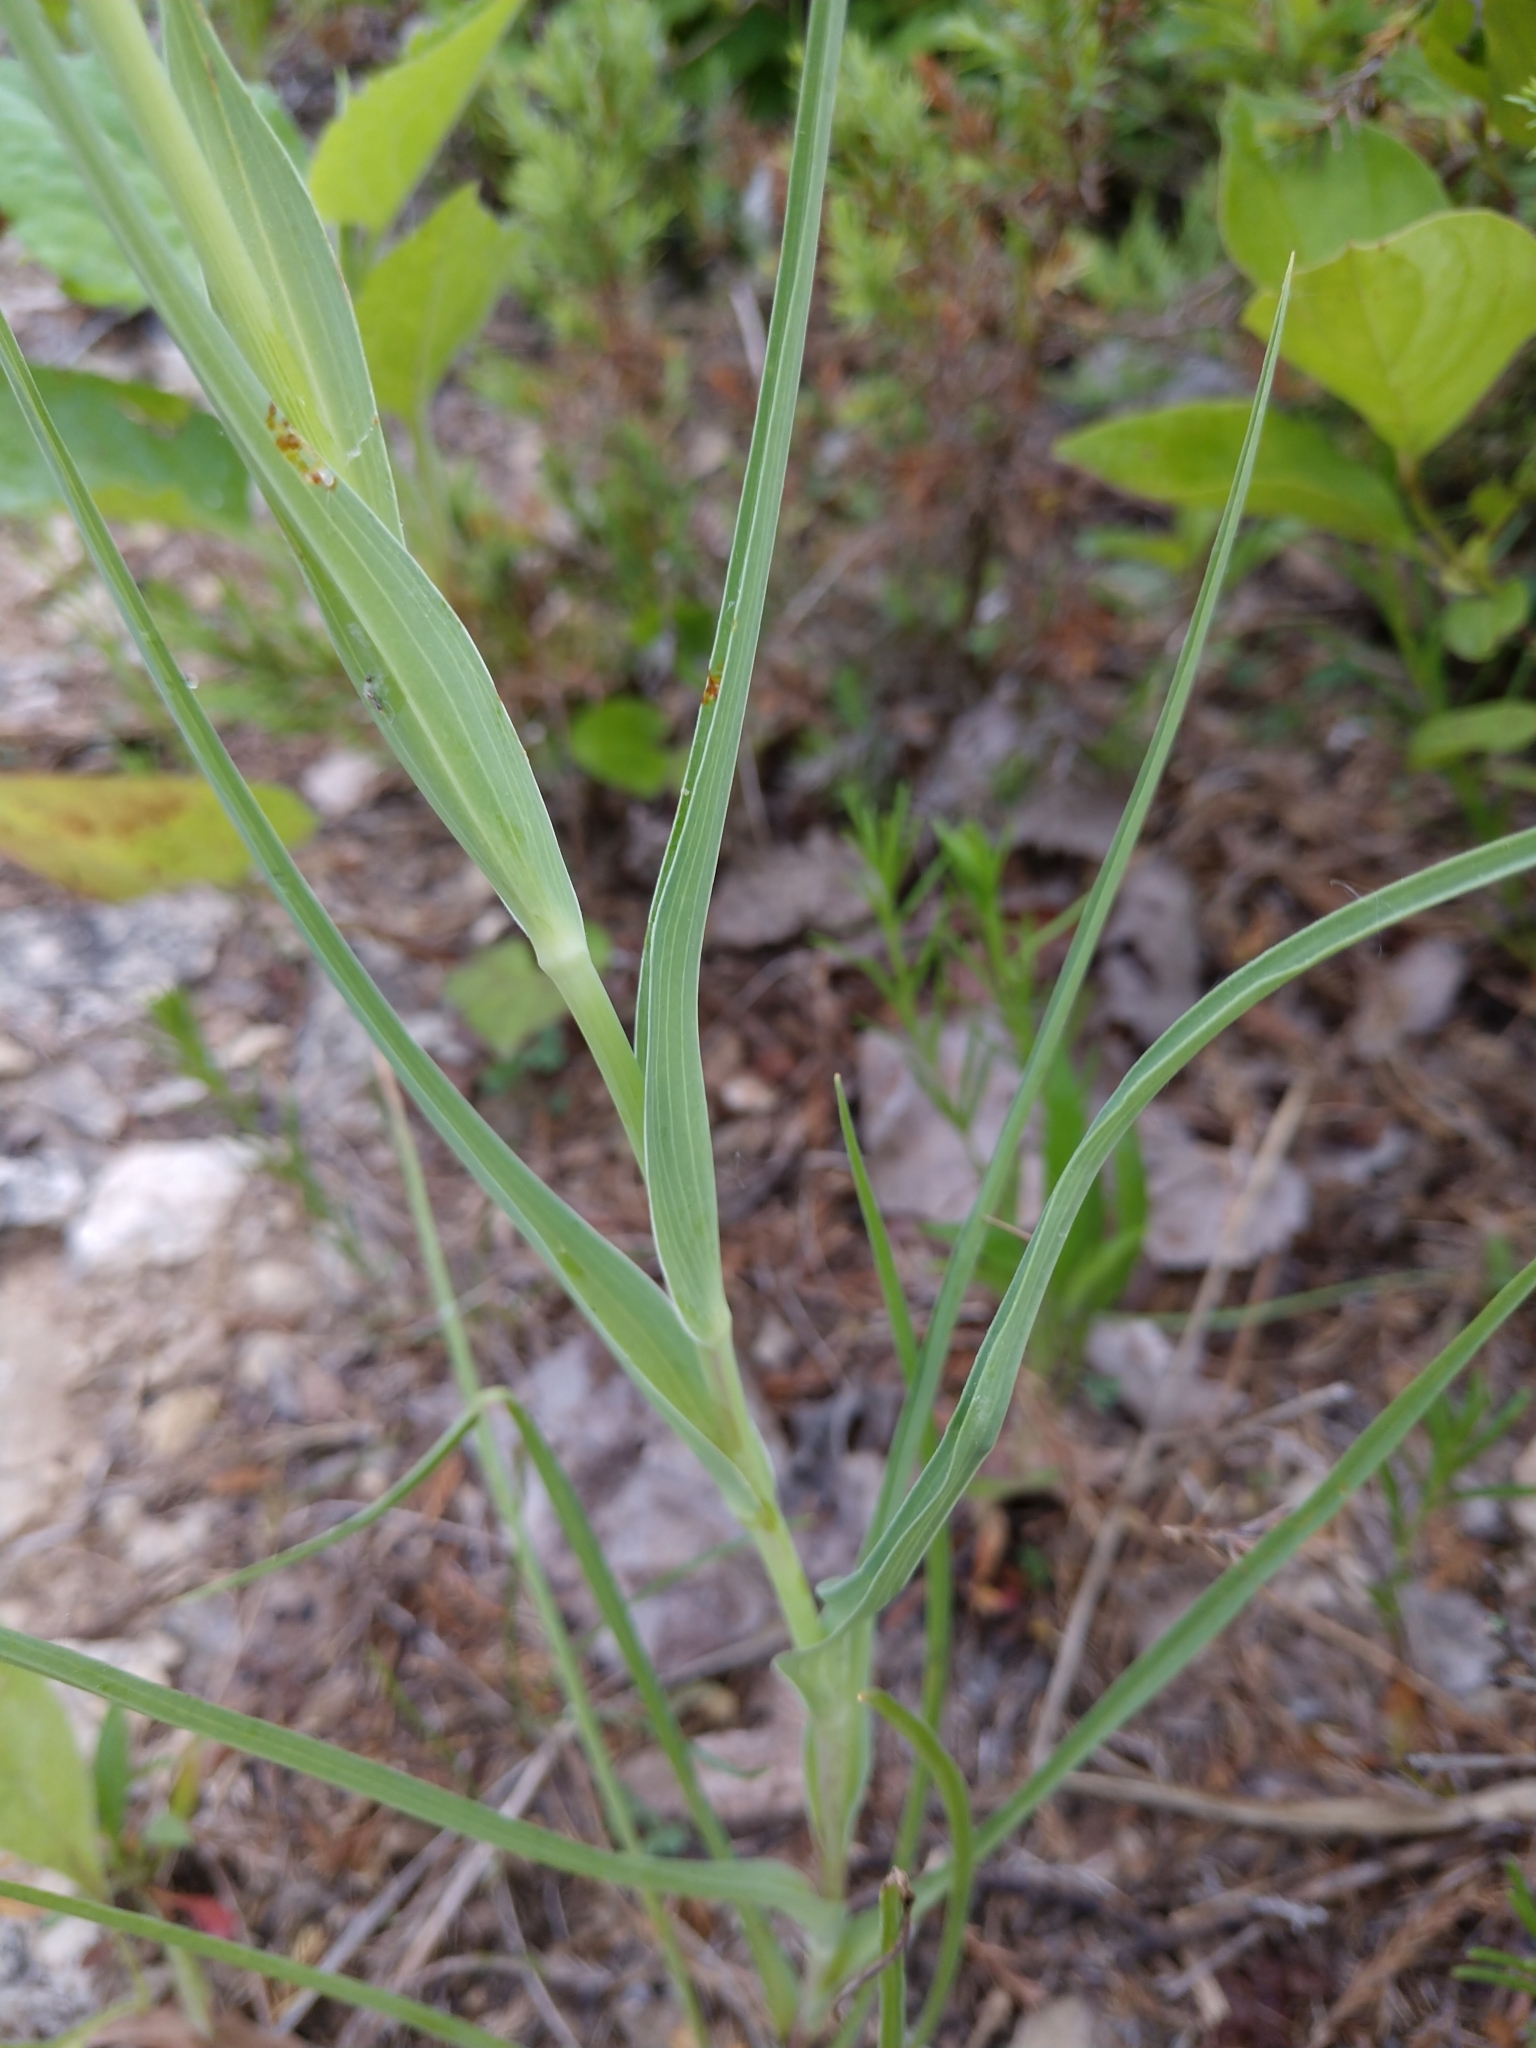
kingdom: Plantae
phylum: Tracheophyta
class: Magnoliopsida
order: Asterales
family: Asteraceae
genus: Tragopogon
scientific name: Tragopogon dubius
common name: Yellow salsify
